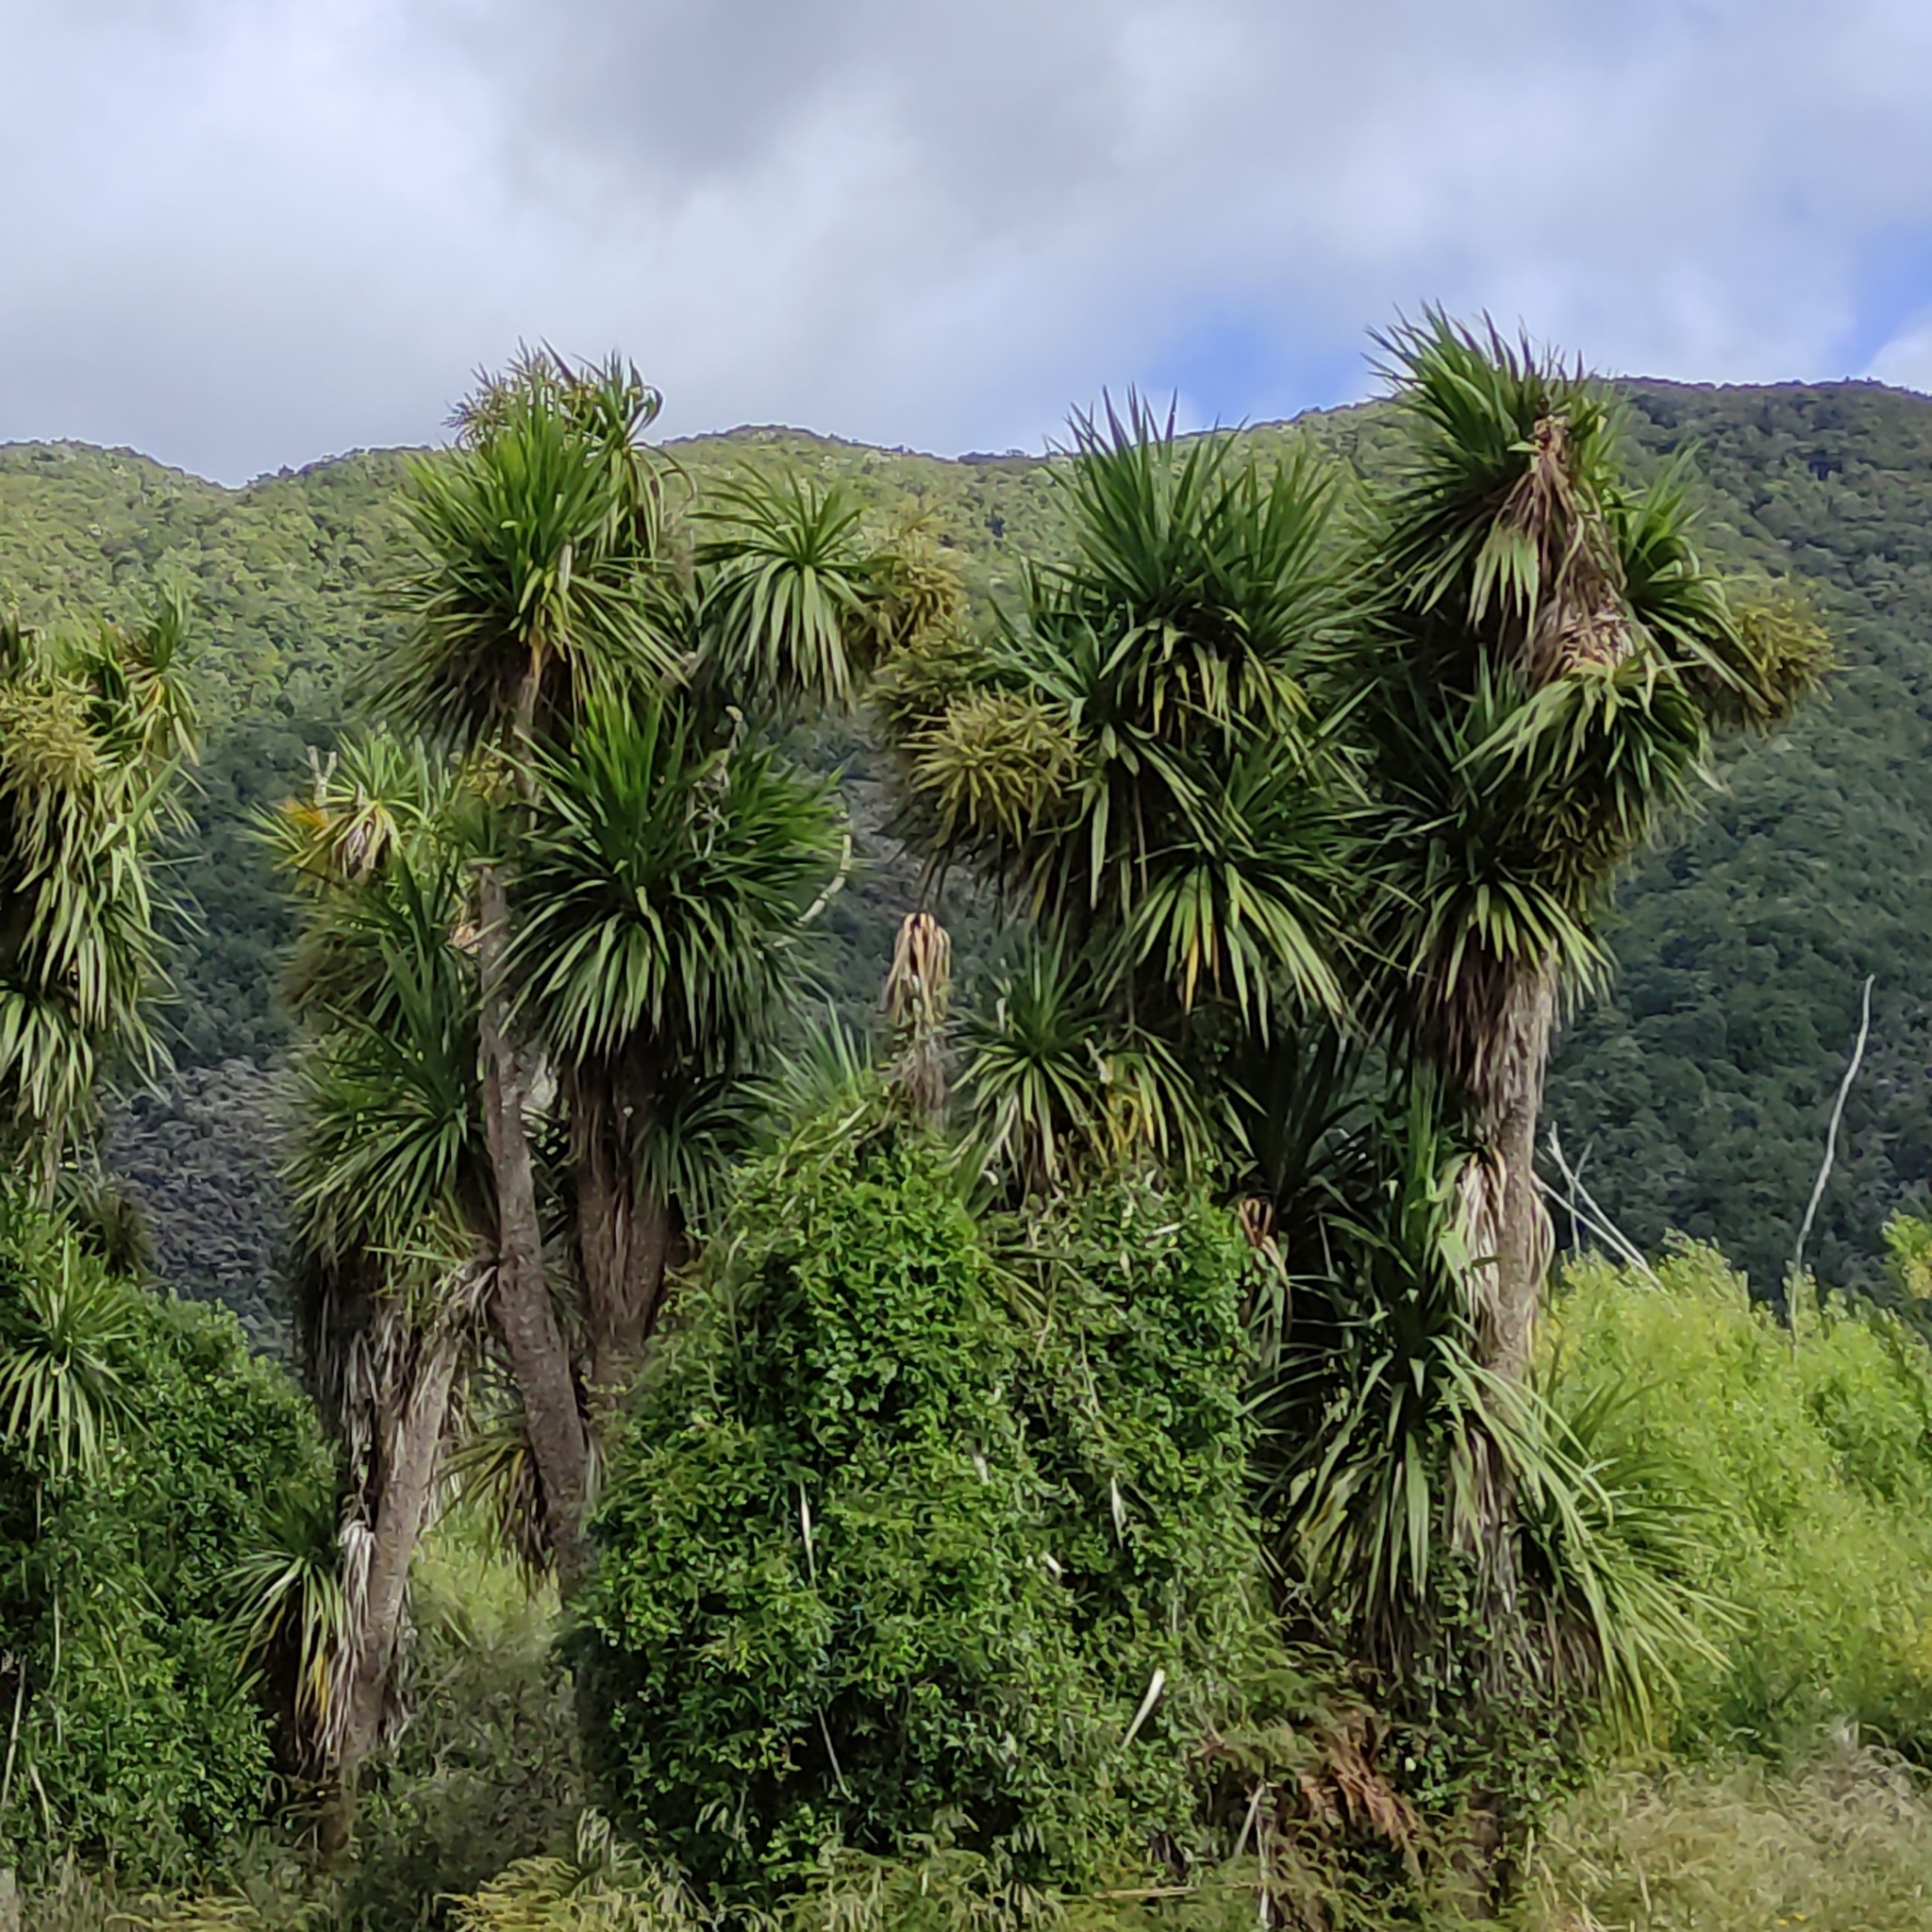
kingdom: Plantae
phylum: Tracheophyta
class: Liliopsida
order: Asparagales
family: Asparagaceae
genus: Cordyline
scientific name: Cordyline australis
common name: Cabbage-palm
